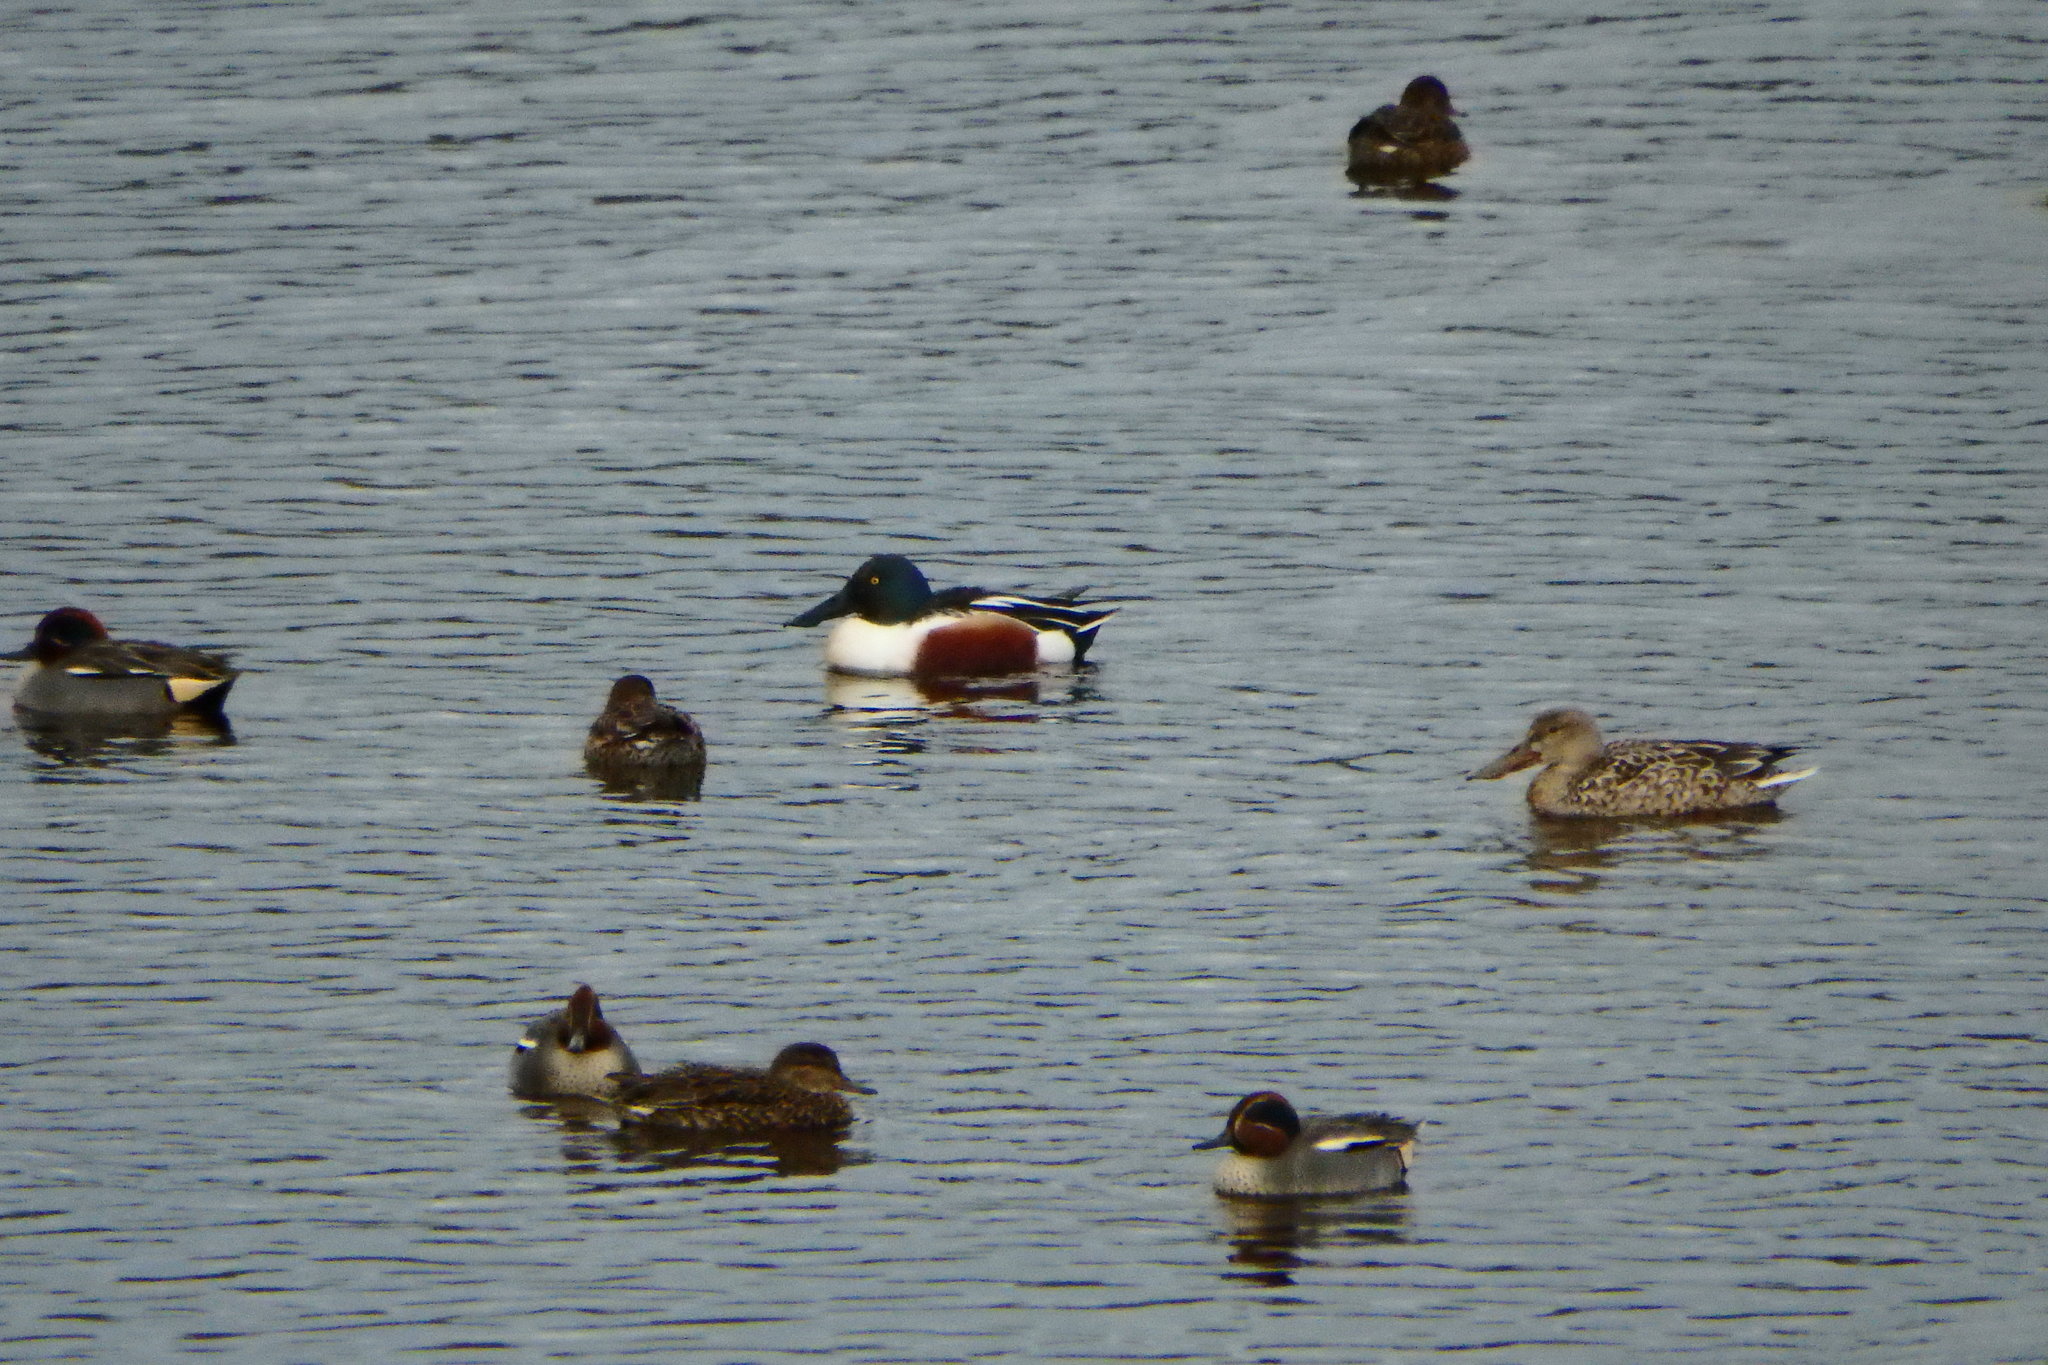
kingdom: Animalia
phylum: Chordata
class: Aves
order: Anseriformes
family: Anatidae
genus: Spatula
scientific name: Spatula clypeata
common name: Northern shoveler
